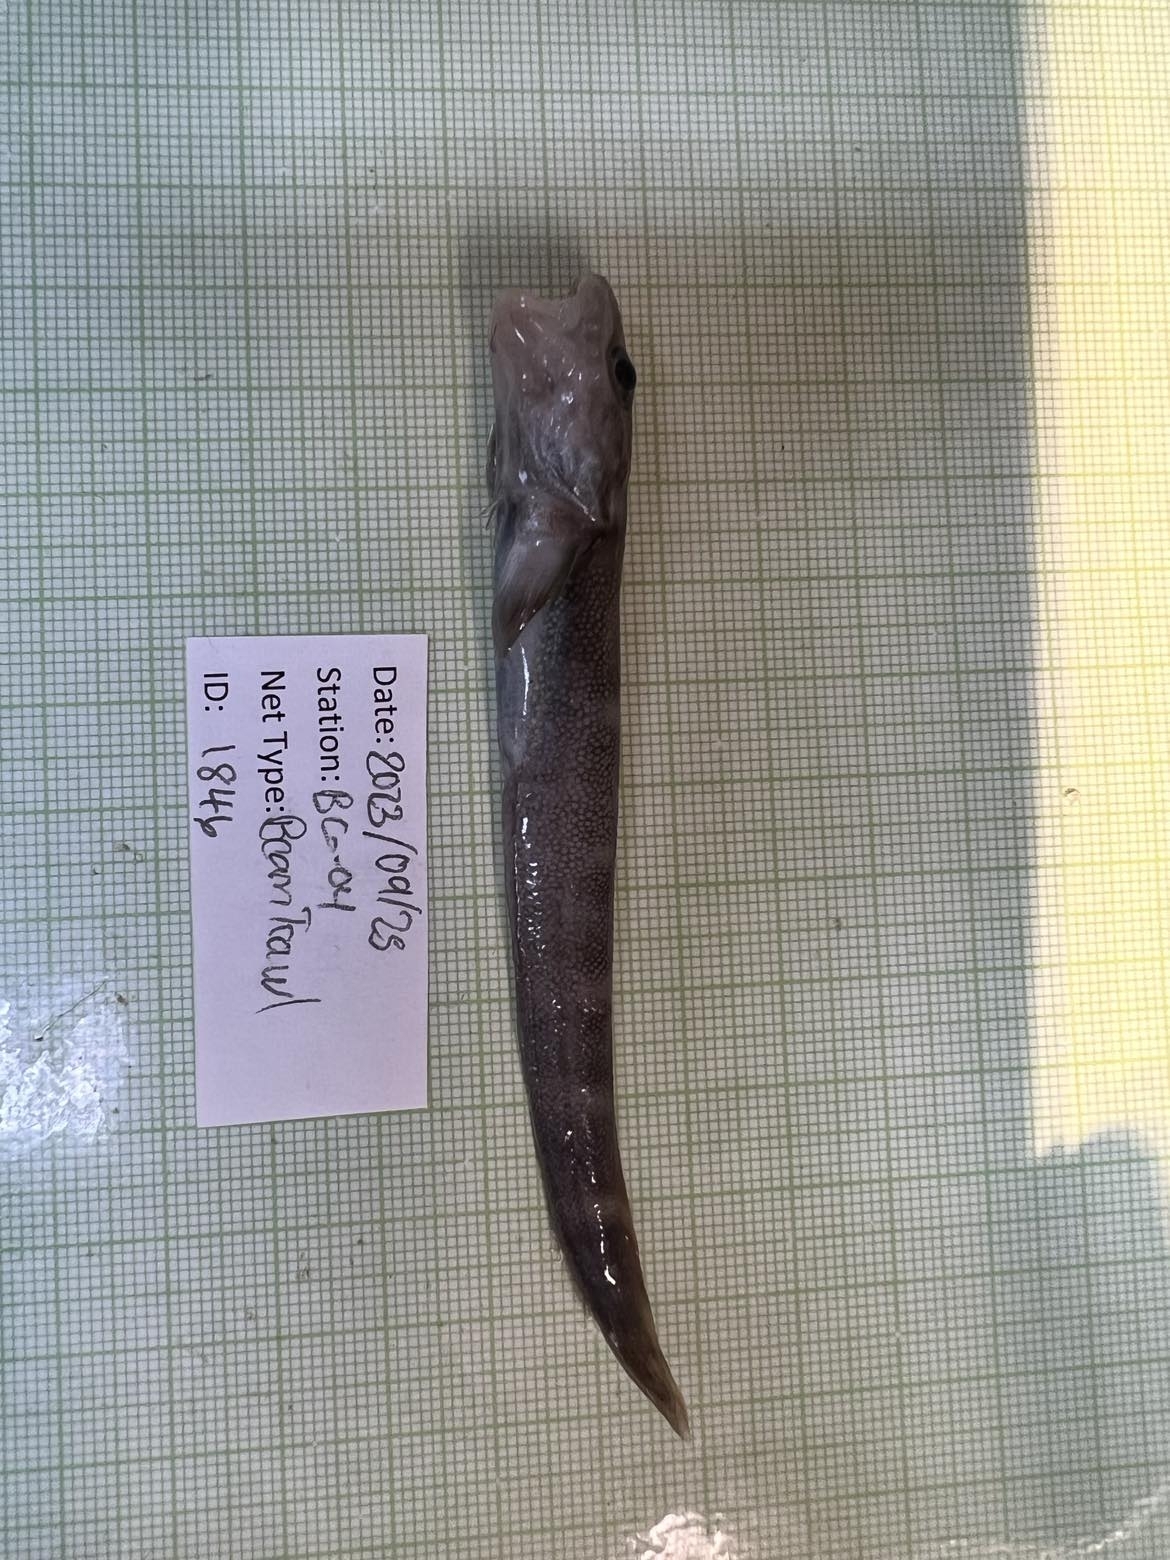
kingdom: Animalia
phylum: Chordata
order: Perciformes
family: Zoarcidae
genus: Lycodes
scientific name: Lycodes pallidus
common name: Pale eelpout
